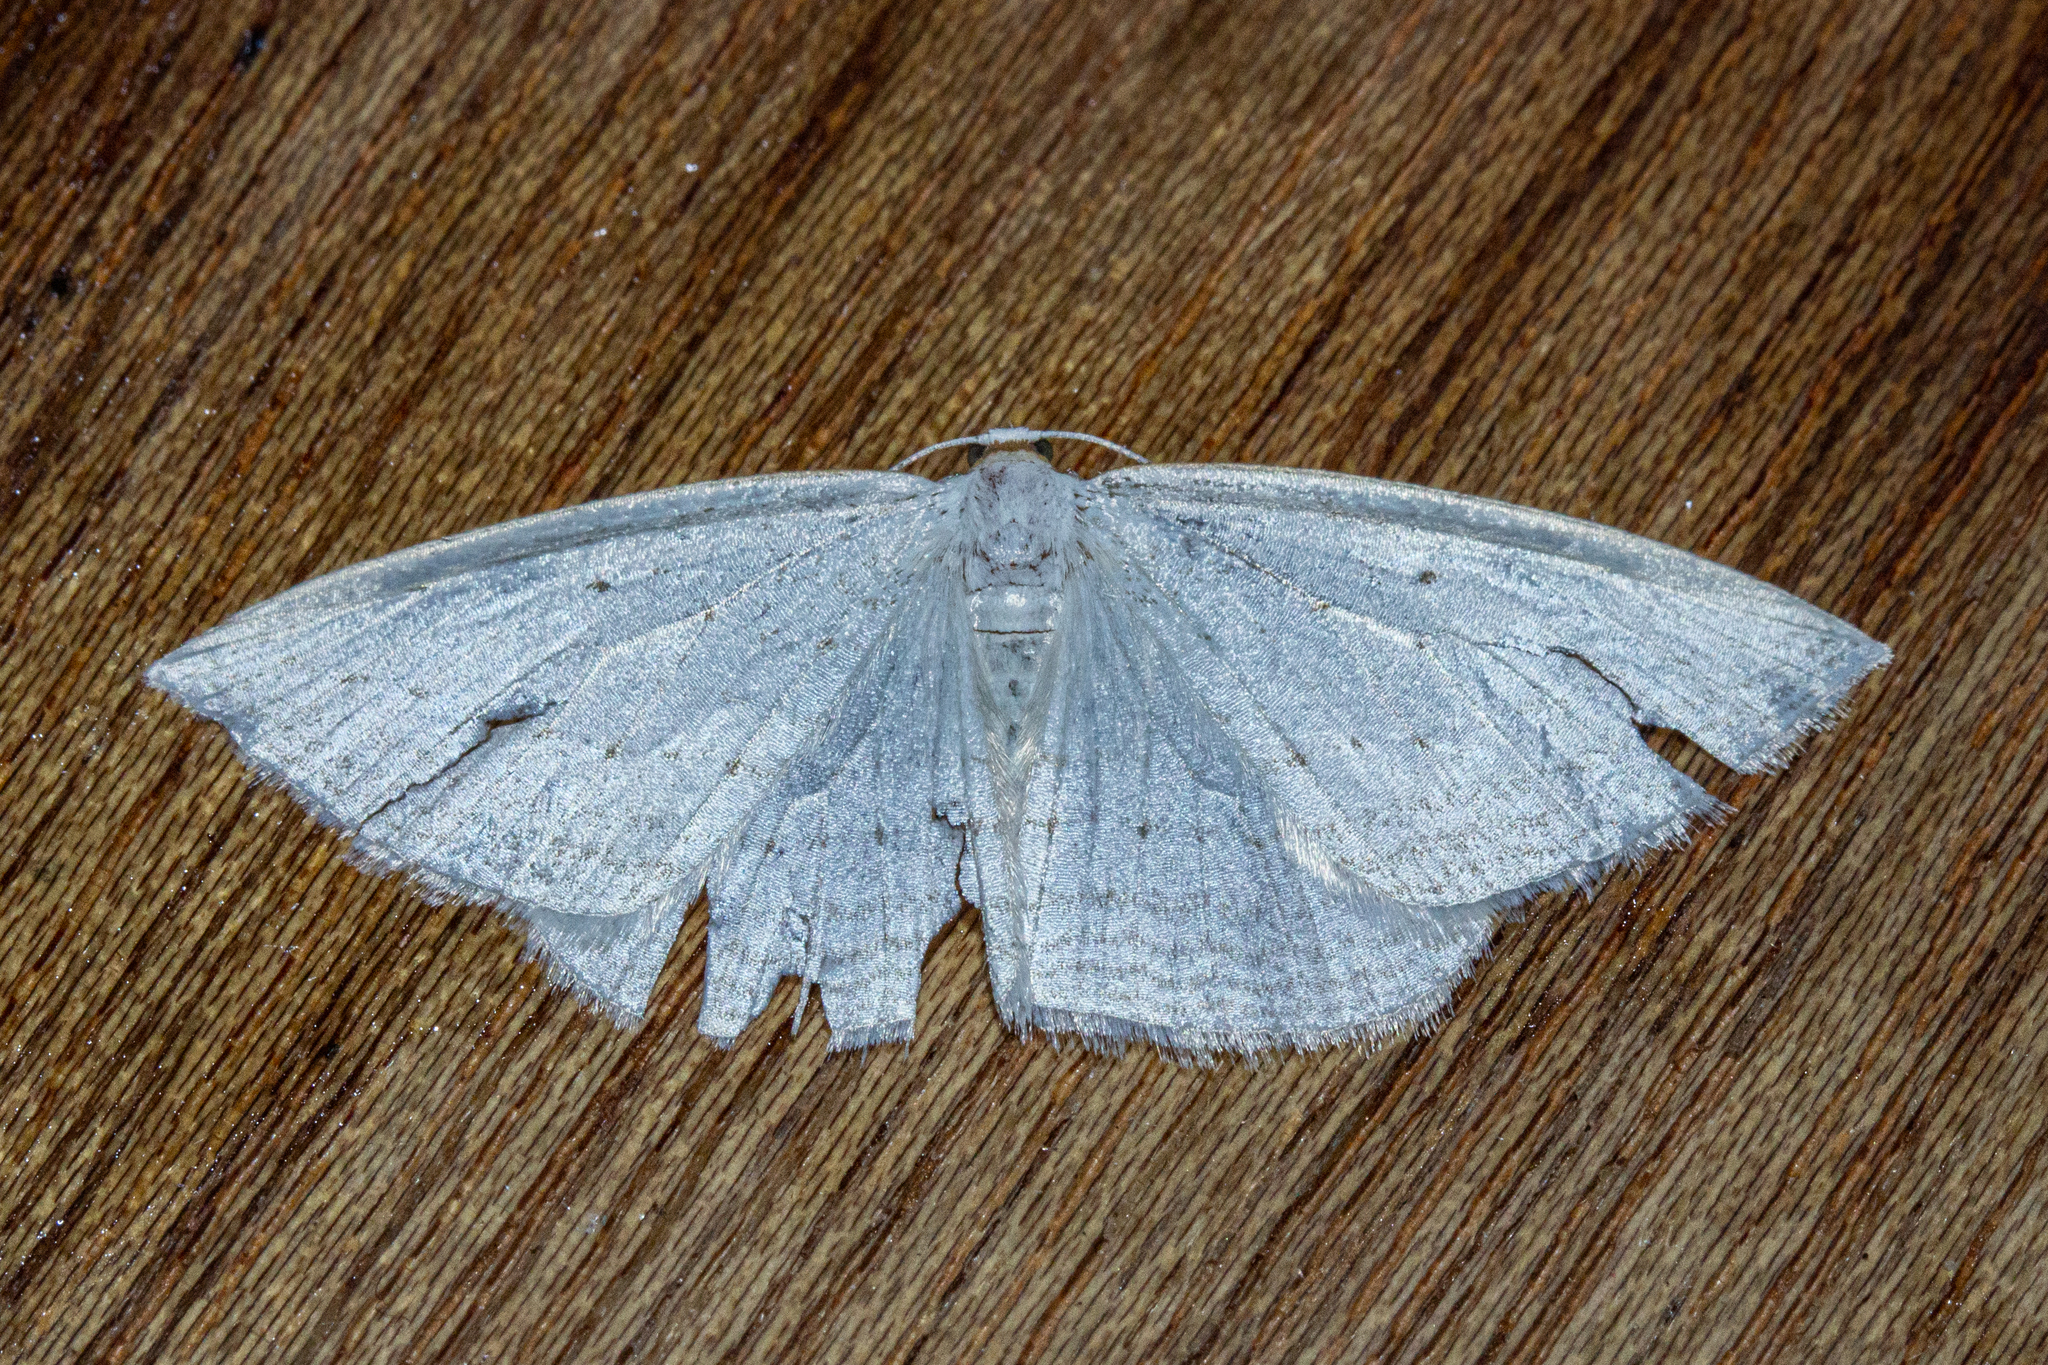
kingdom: Animalia
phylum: Arthropoda
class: Insecta
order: Lepidoptera
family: Geometridae
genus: Orthoclydon
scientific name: Orthoclydon praefectata
